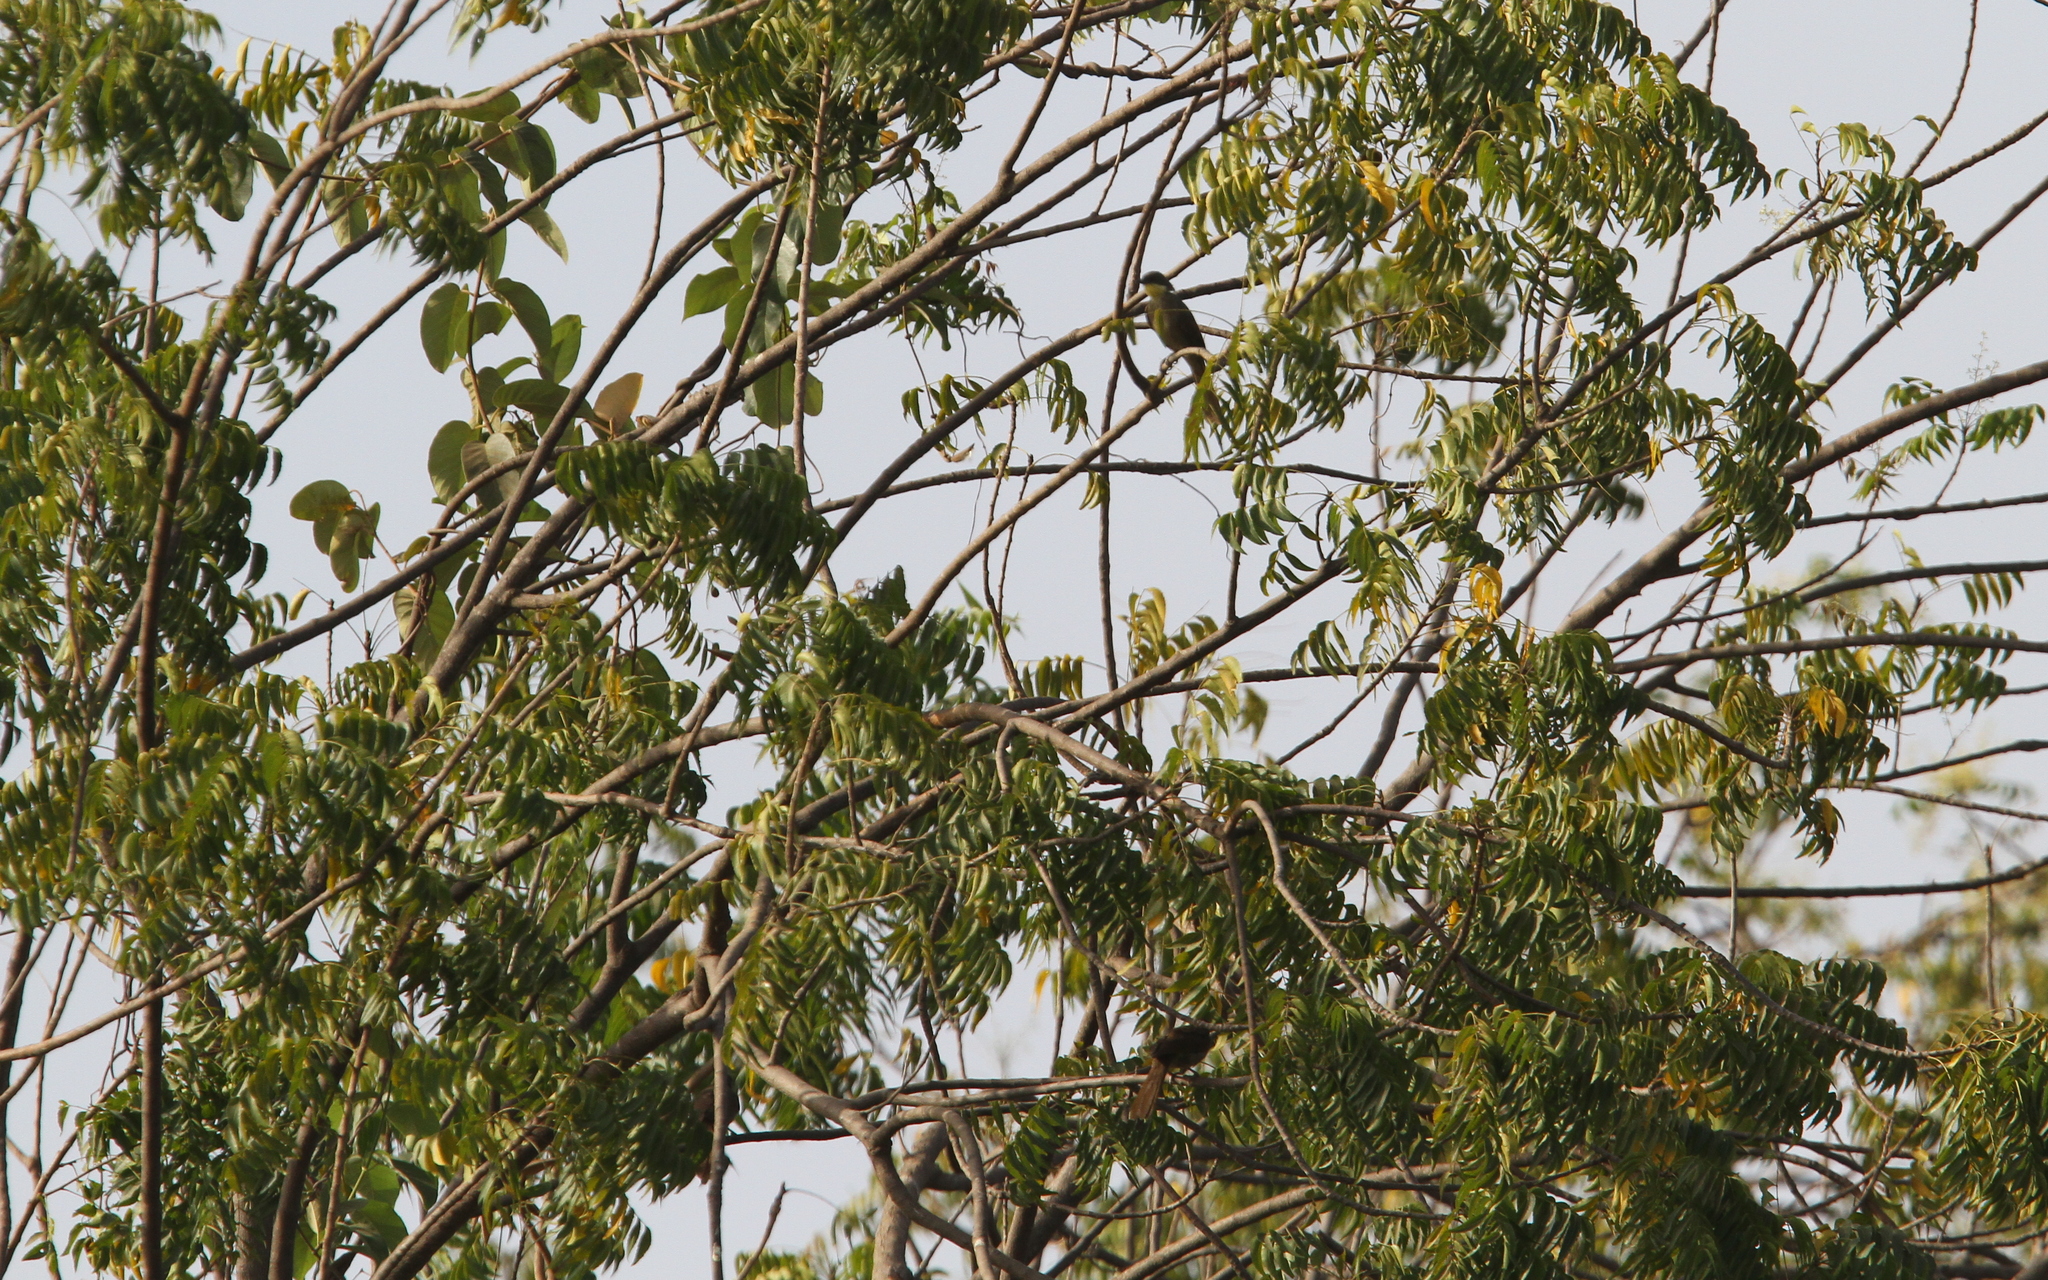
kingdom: Animalia
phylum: Chordata
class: Aves
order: Passeriformes
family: Pycnonotidae
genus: Atimastillas
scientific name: Atimastillas flavicollis
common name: Yellow-throated leaflove
